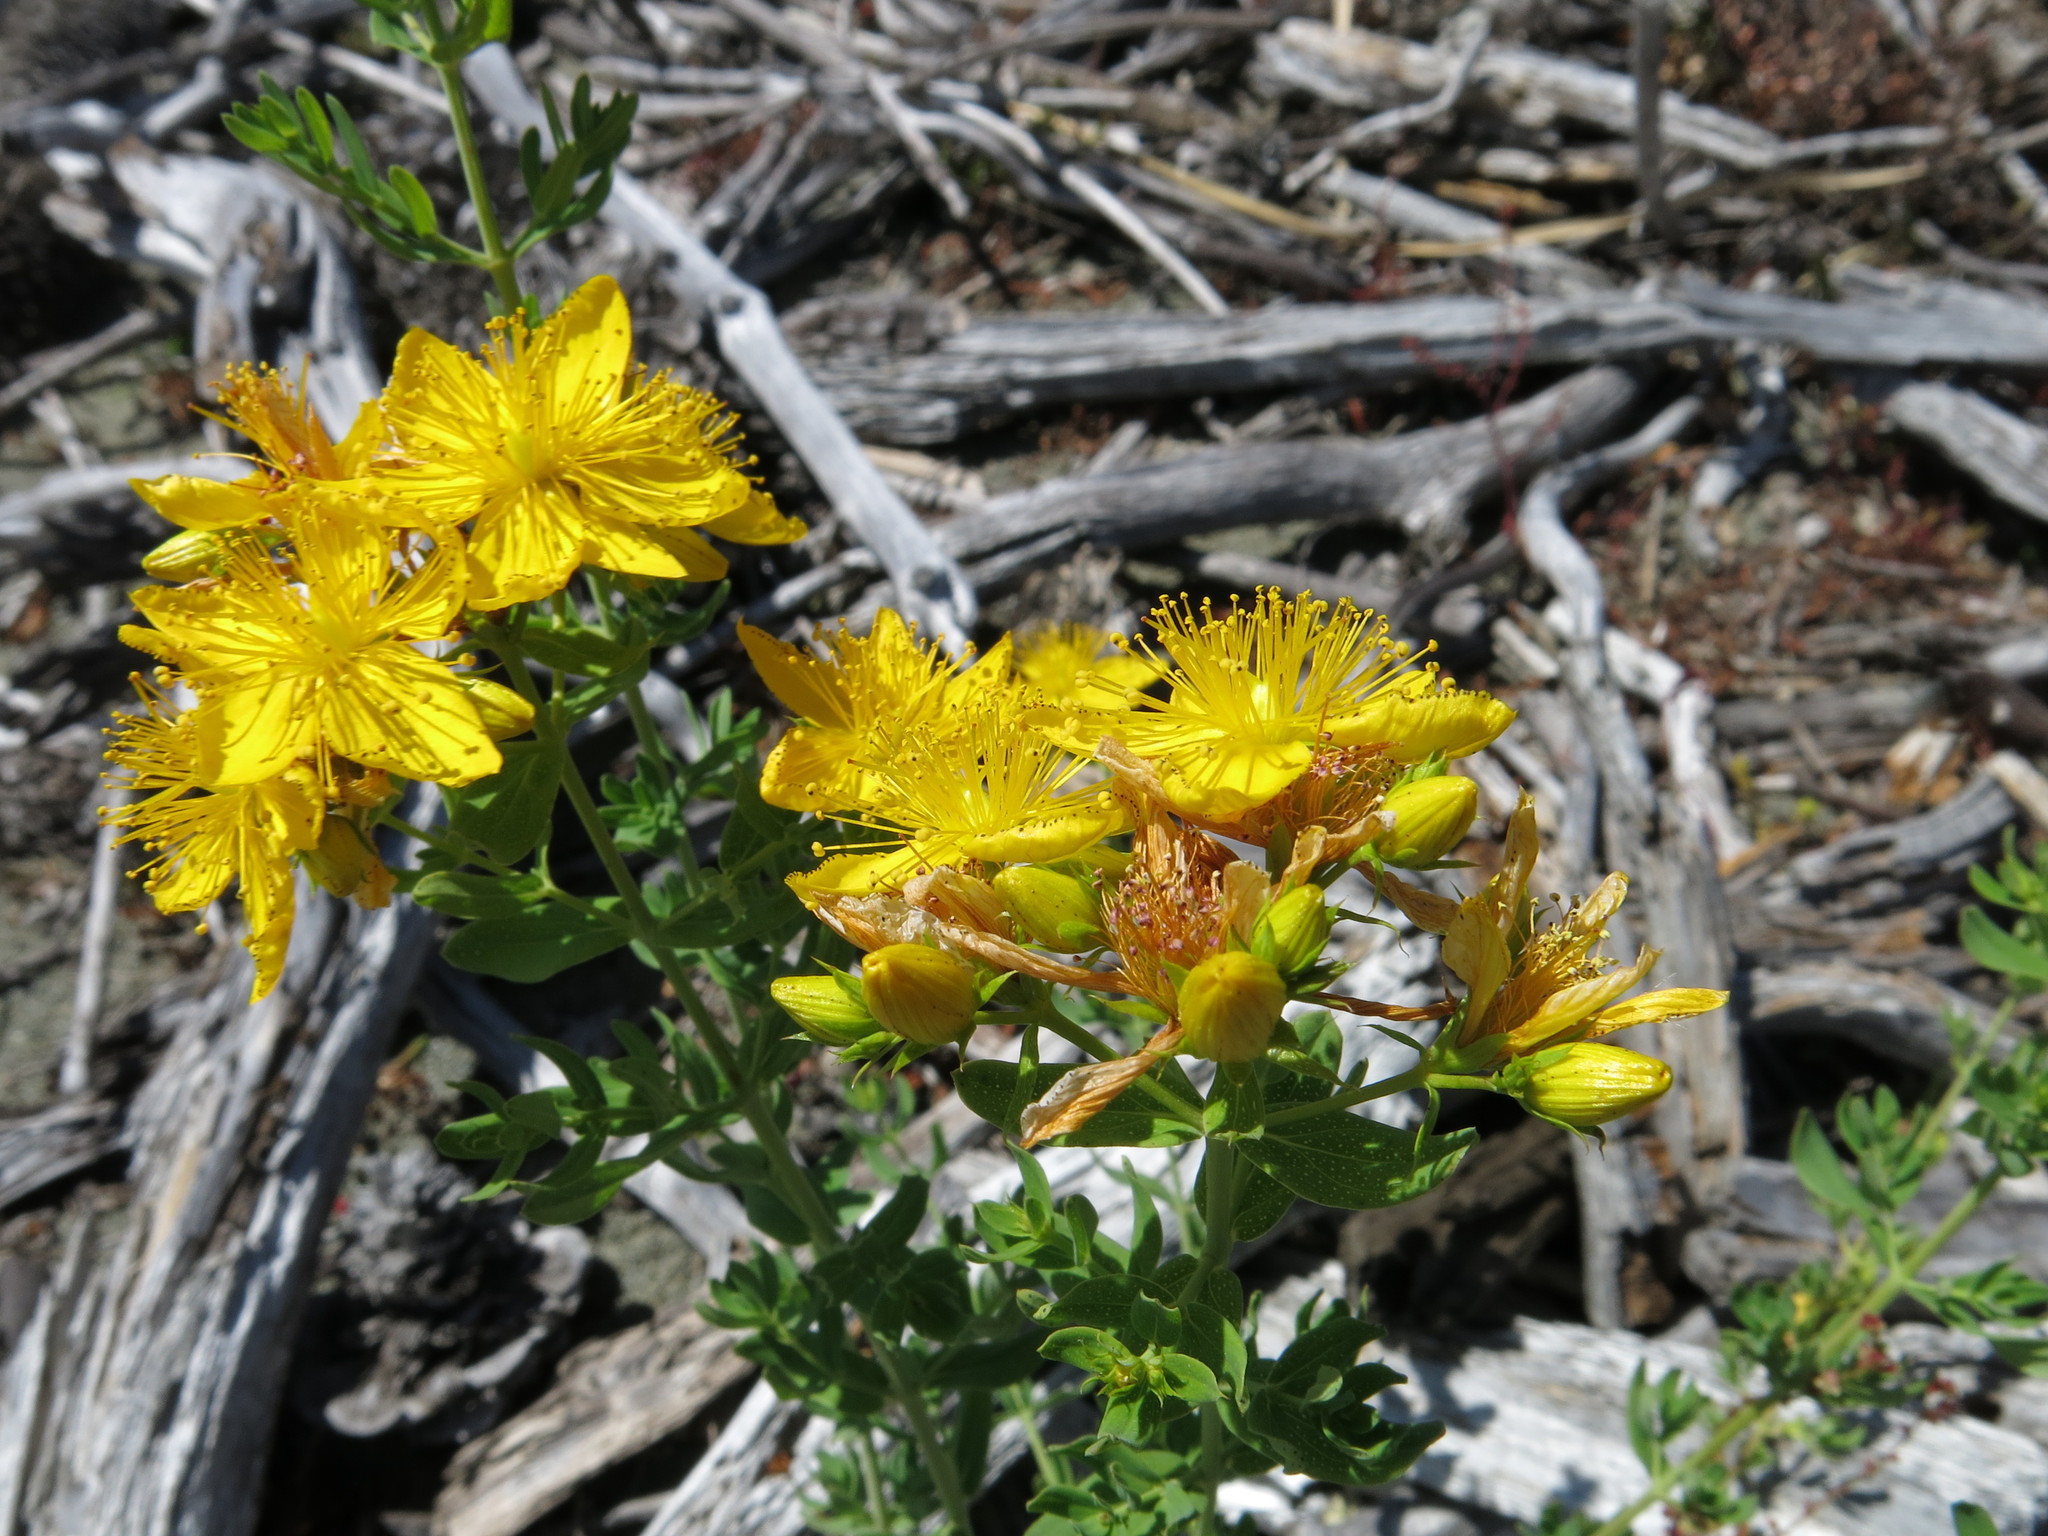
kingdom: Plantae
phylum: Tracheophyta
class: Magnoliopsida
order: Malpighiales
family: Hypericaceae
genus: Hypericum
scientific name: Hypericum perforatum
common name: Common st. johnswort
